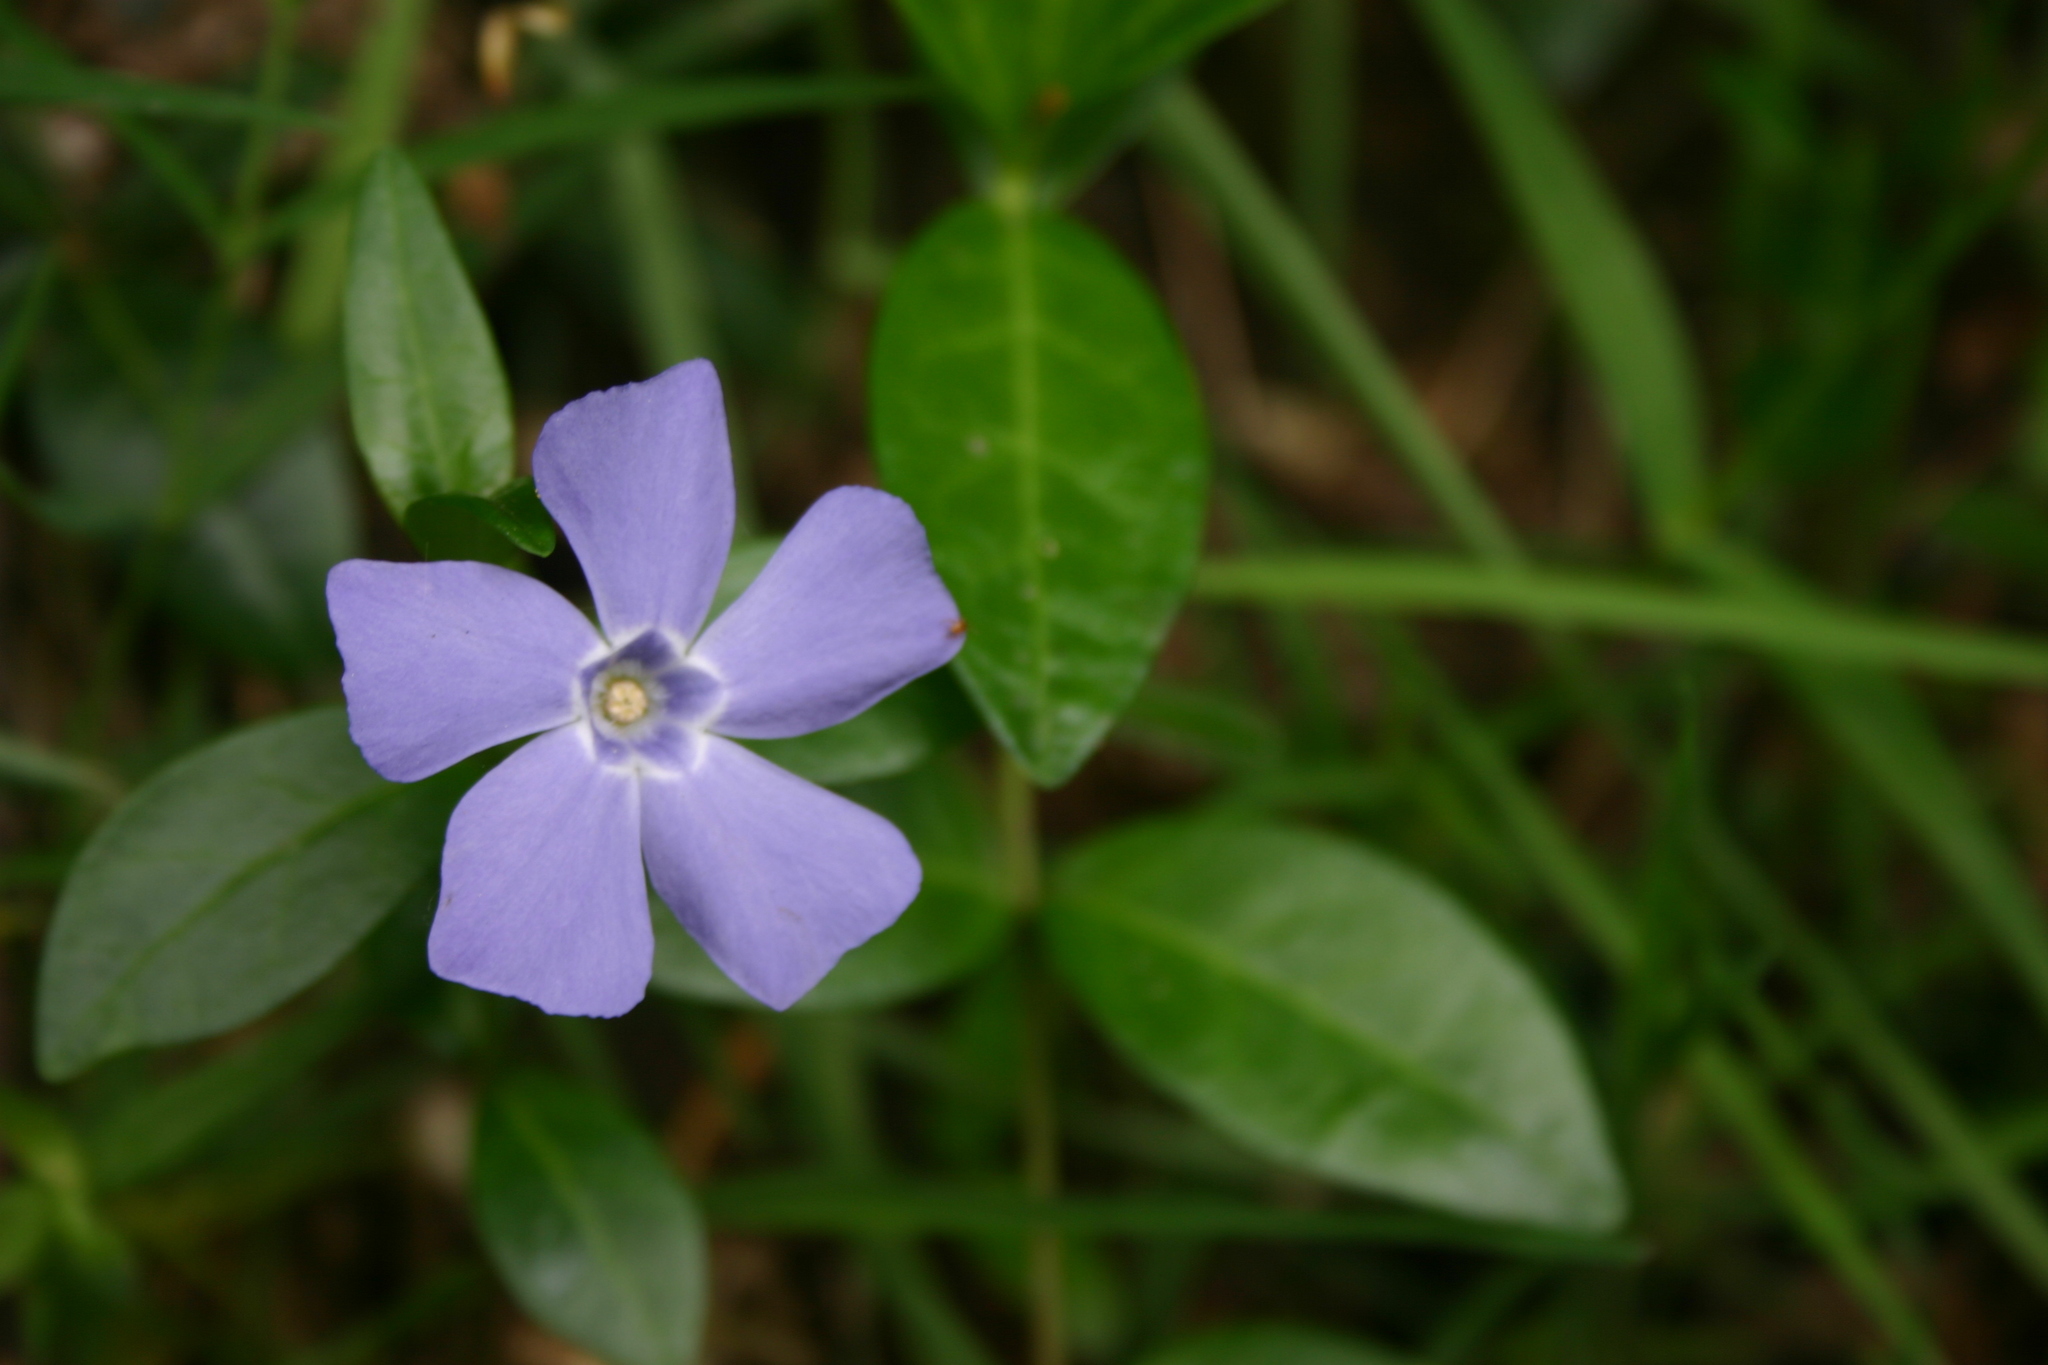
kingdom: Plantae
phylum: Tracheophyta
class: Magnoliopsida
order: Gentianales
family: Apocynaceae
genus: Vinca
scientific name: Vinca minor
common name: Lesser periwinkle
